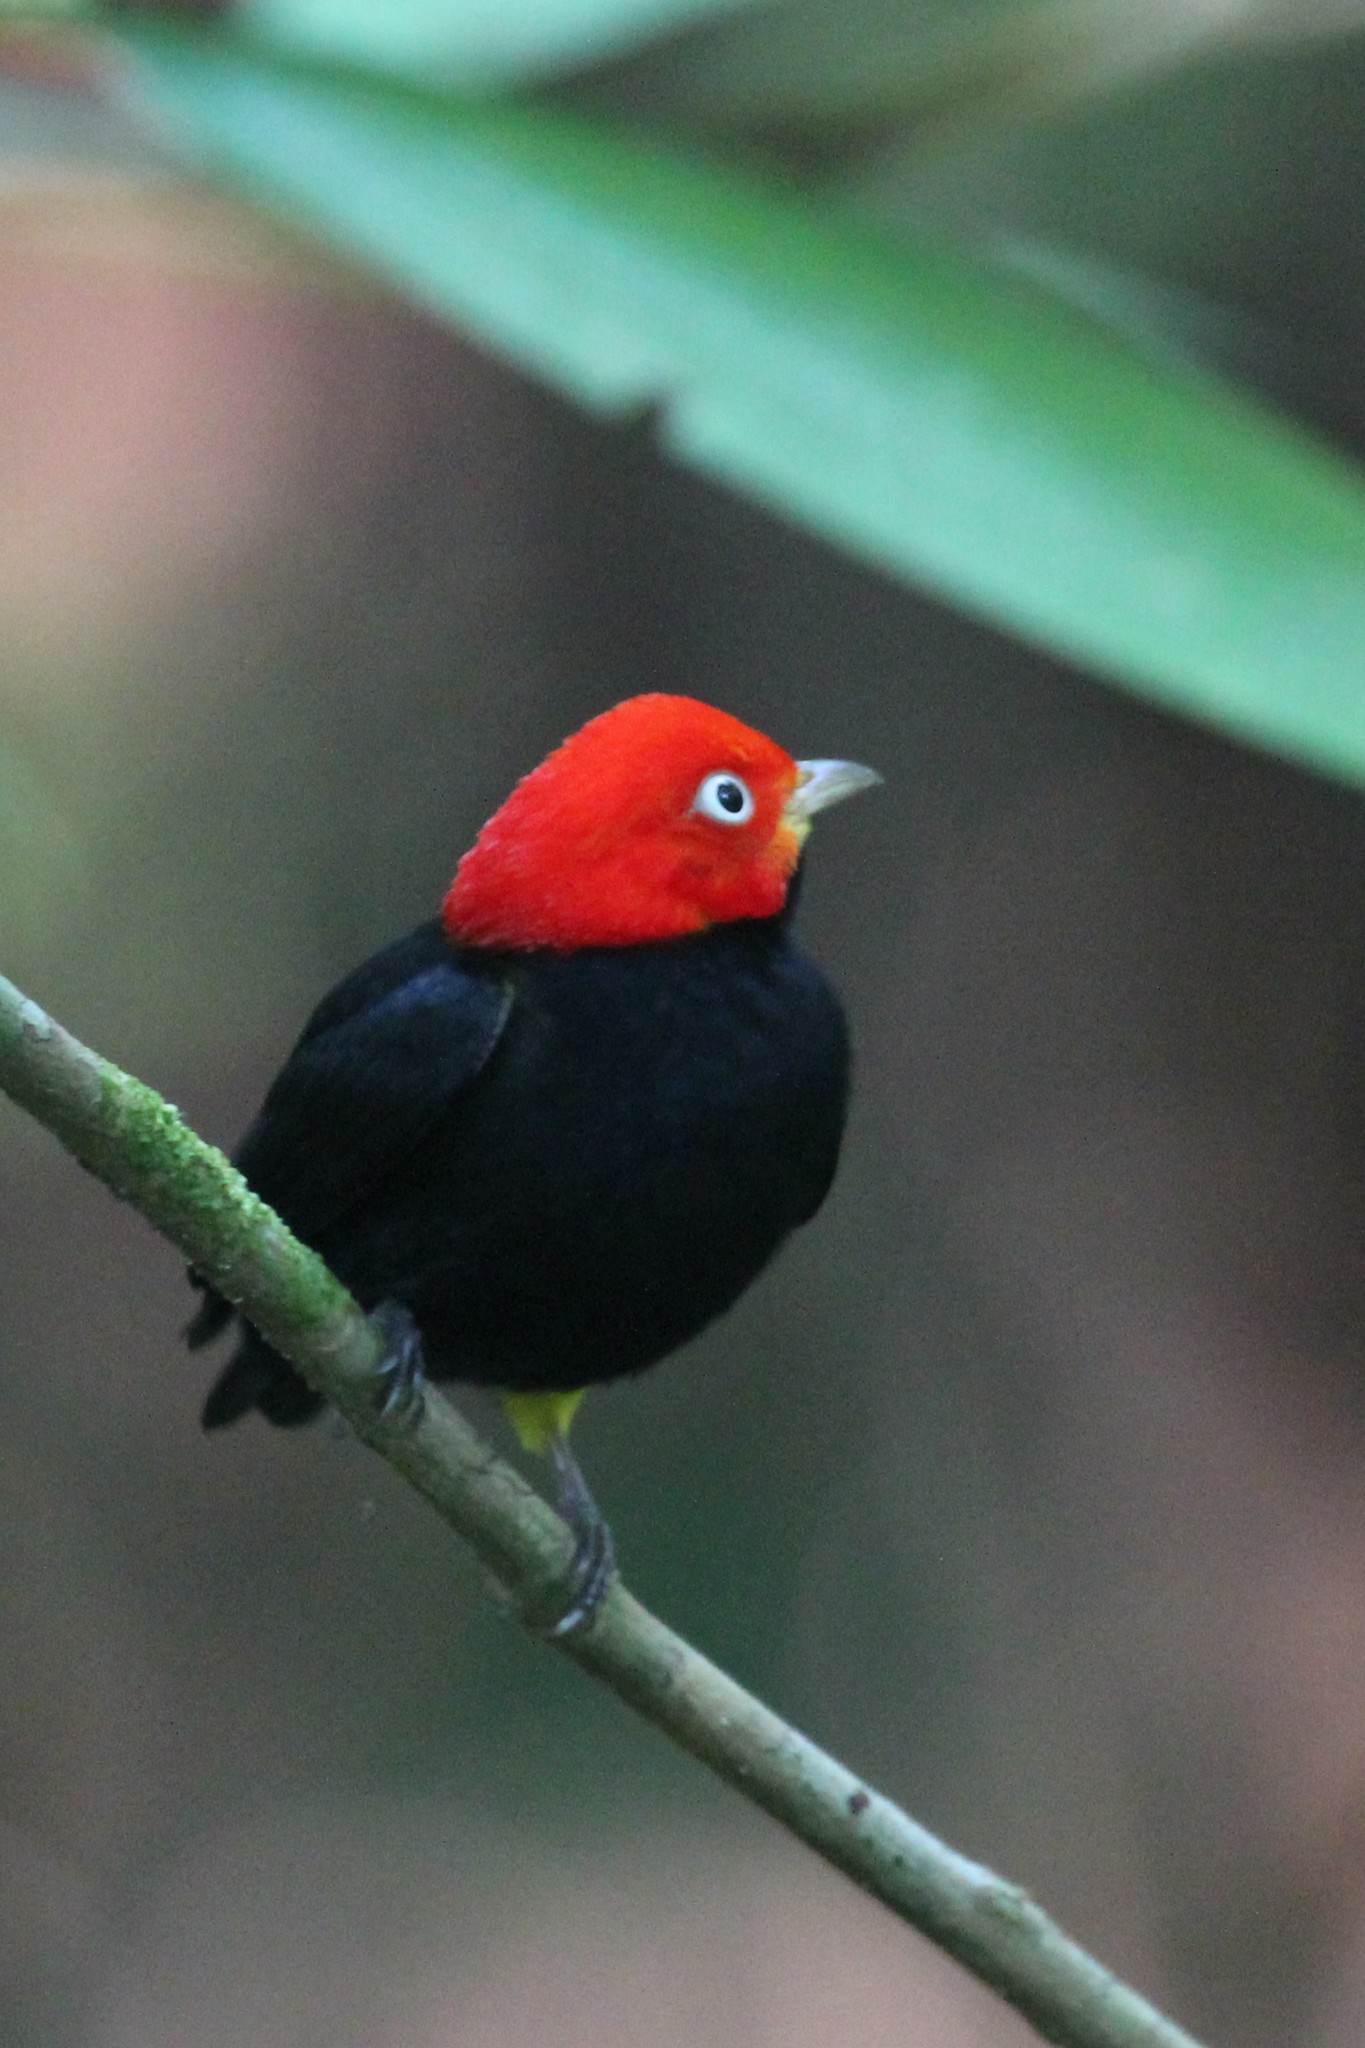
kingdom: Animalia
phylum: Chordata
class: Aves
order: Passeriformes
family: Pipridae
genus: Pipra
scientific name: Pipra mentalis
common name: Red-capped manakin
